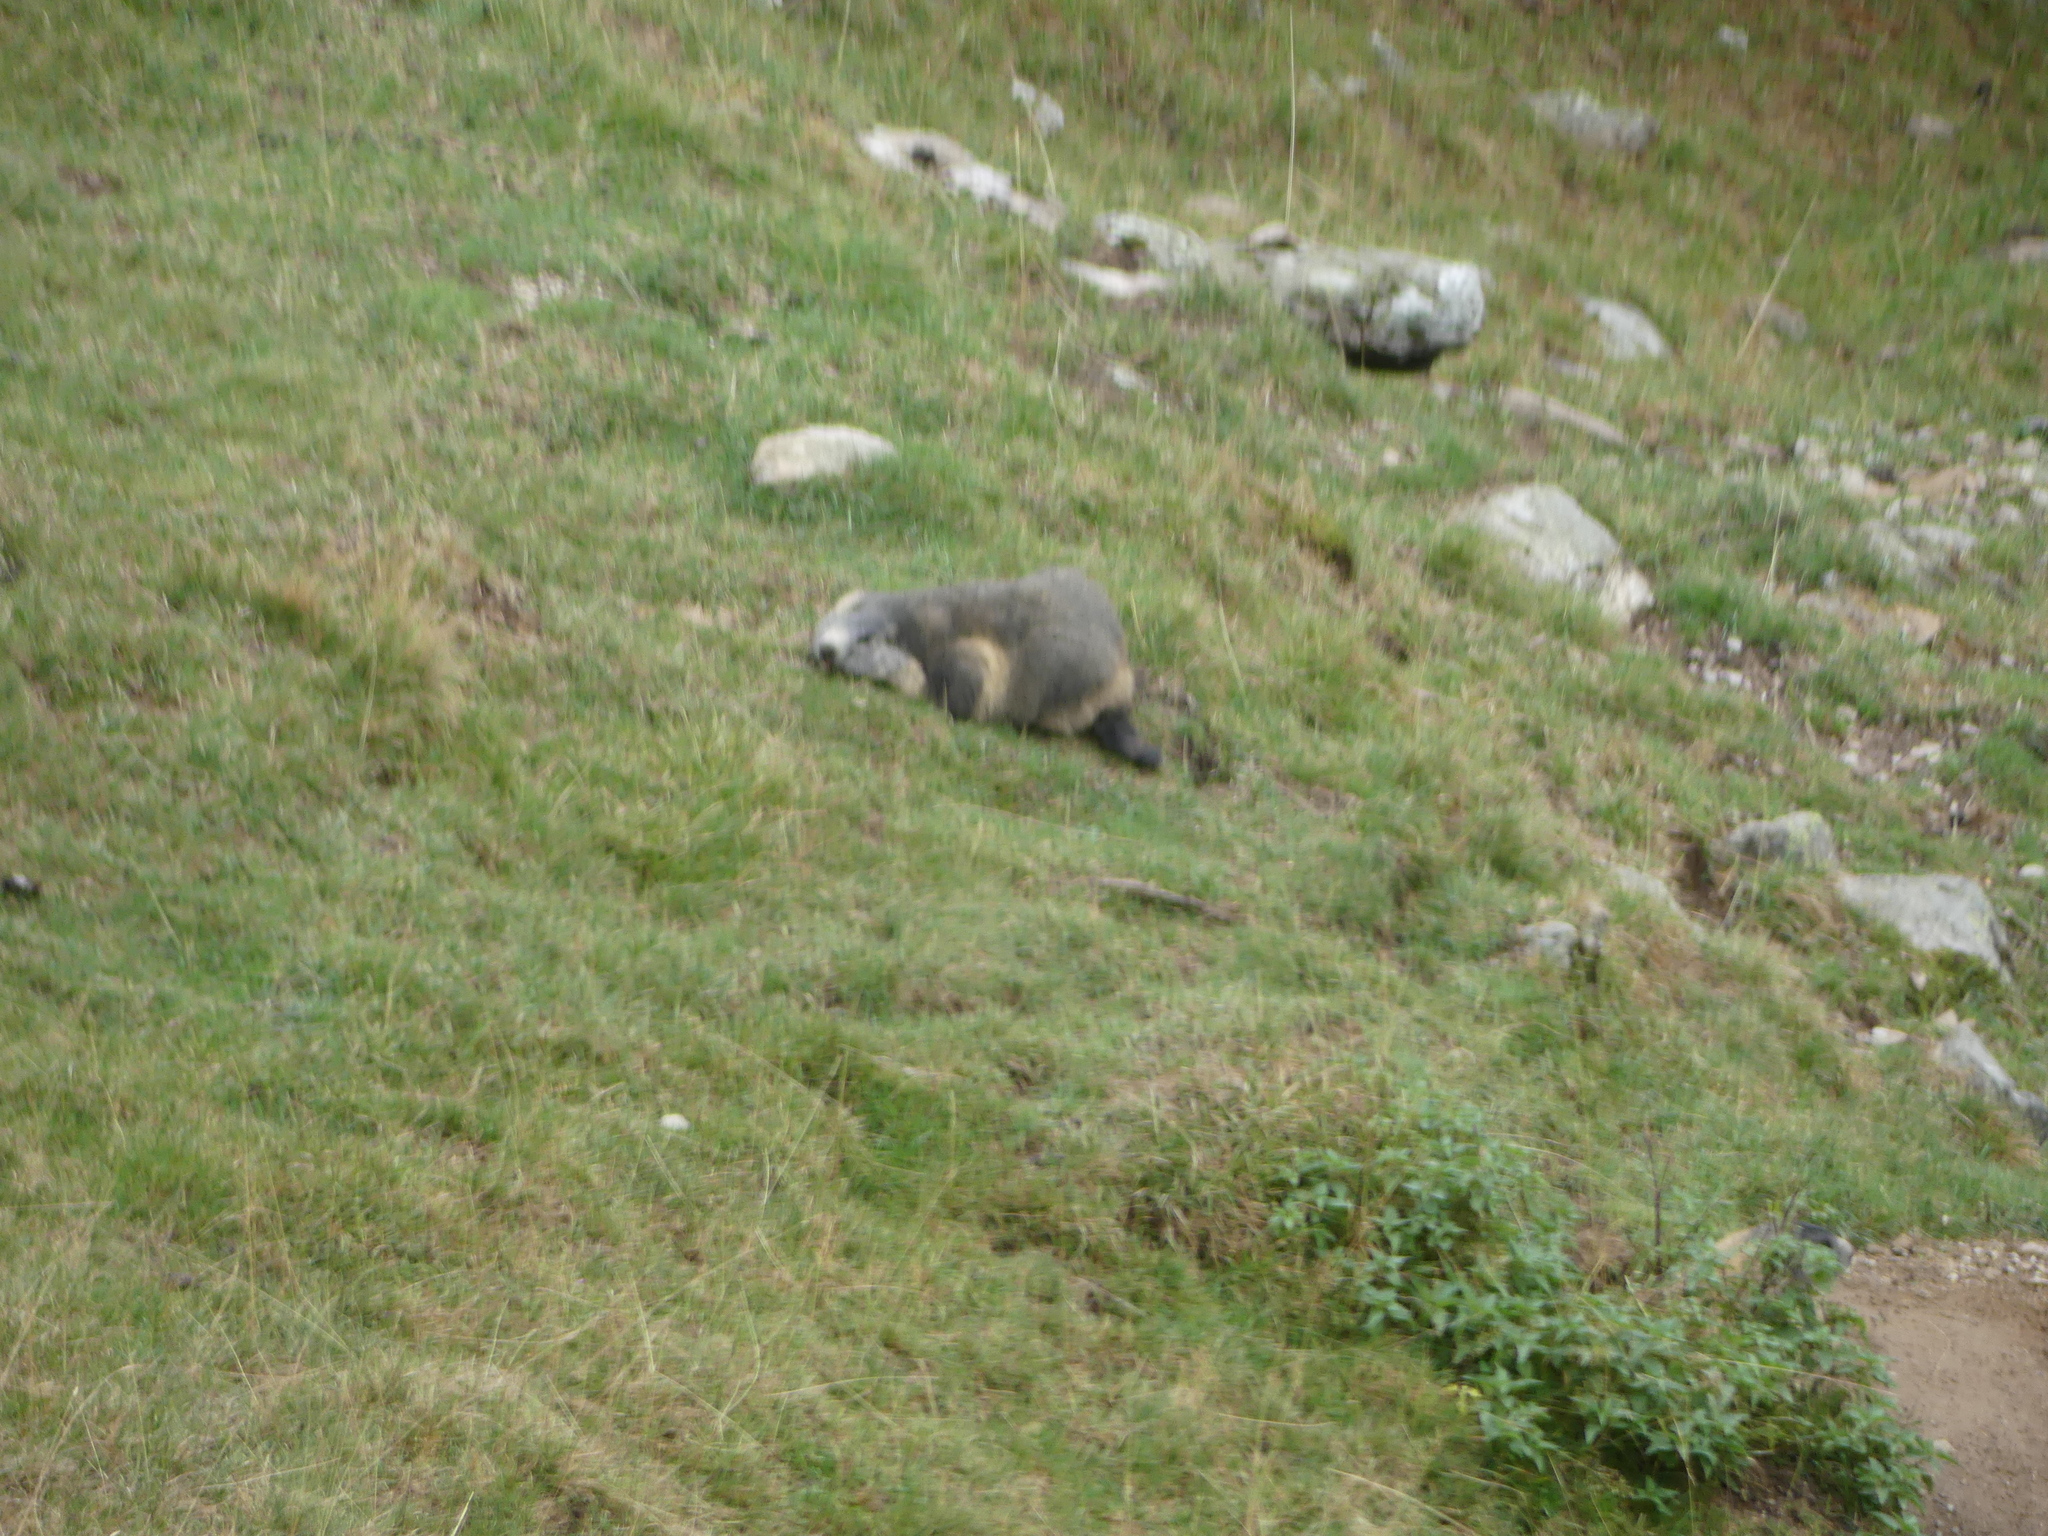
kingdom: Animalia
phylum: Chordata
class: Mammalia
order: Rodentia
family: Sciuridae
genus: Marmota
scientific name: Marmota marmota
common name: Alpine marmot
